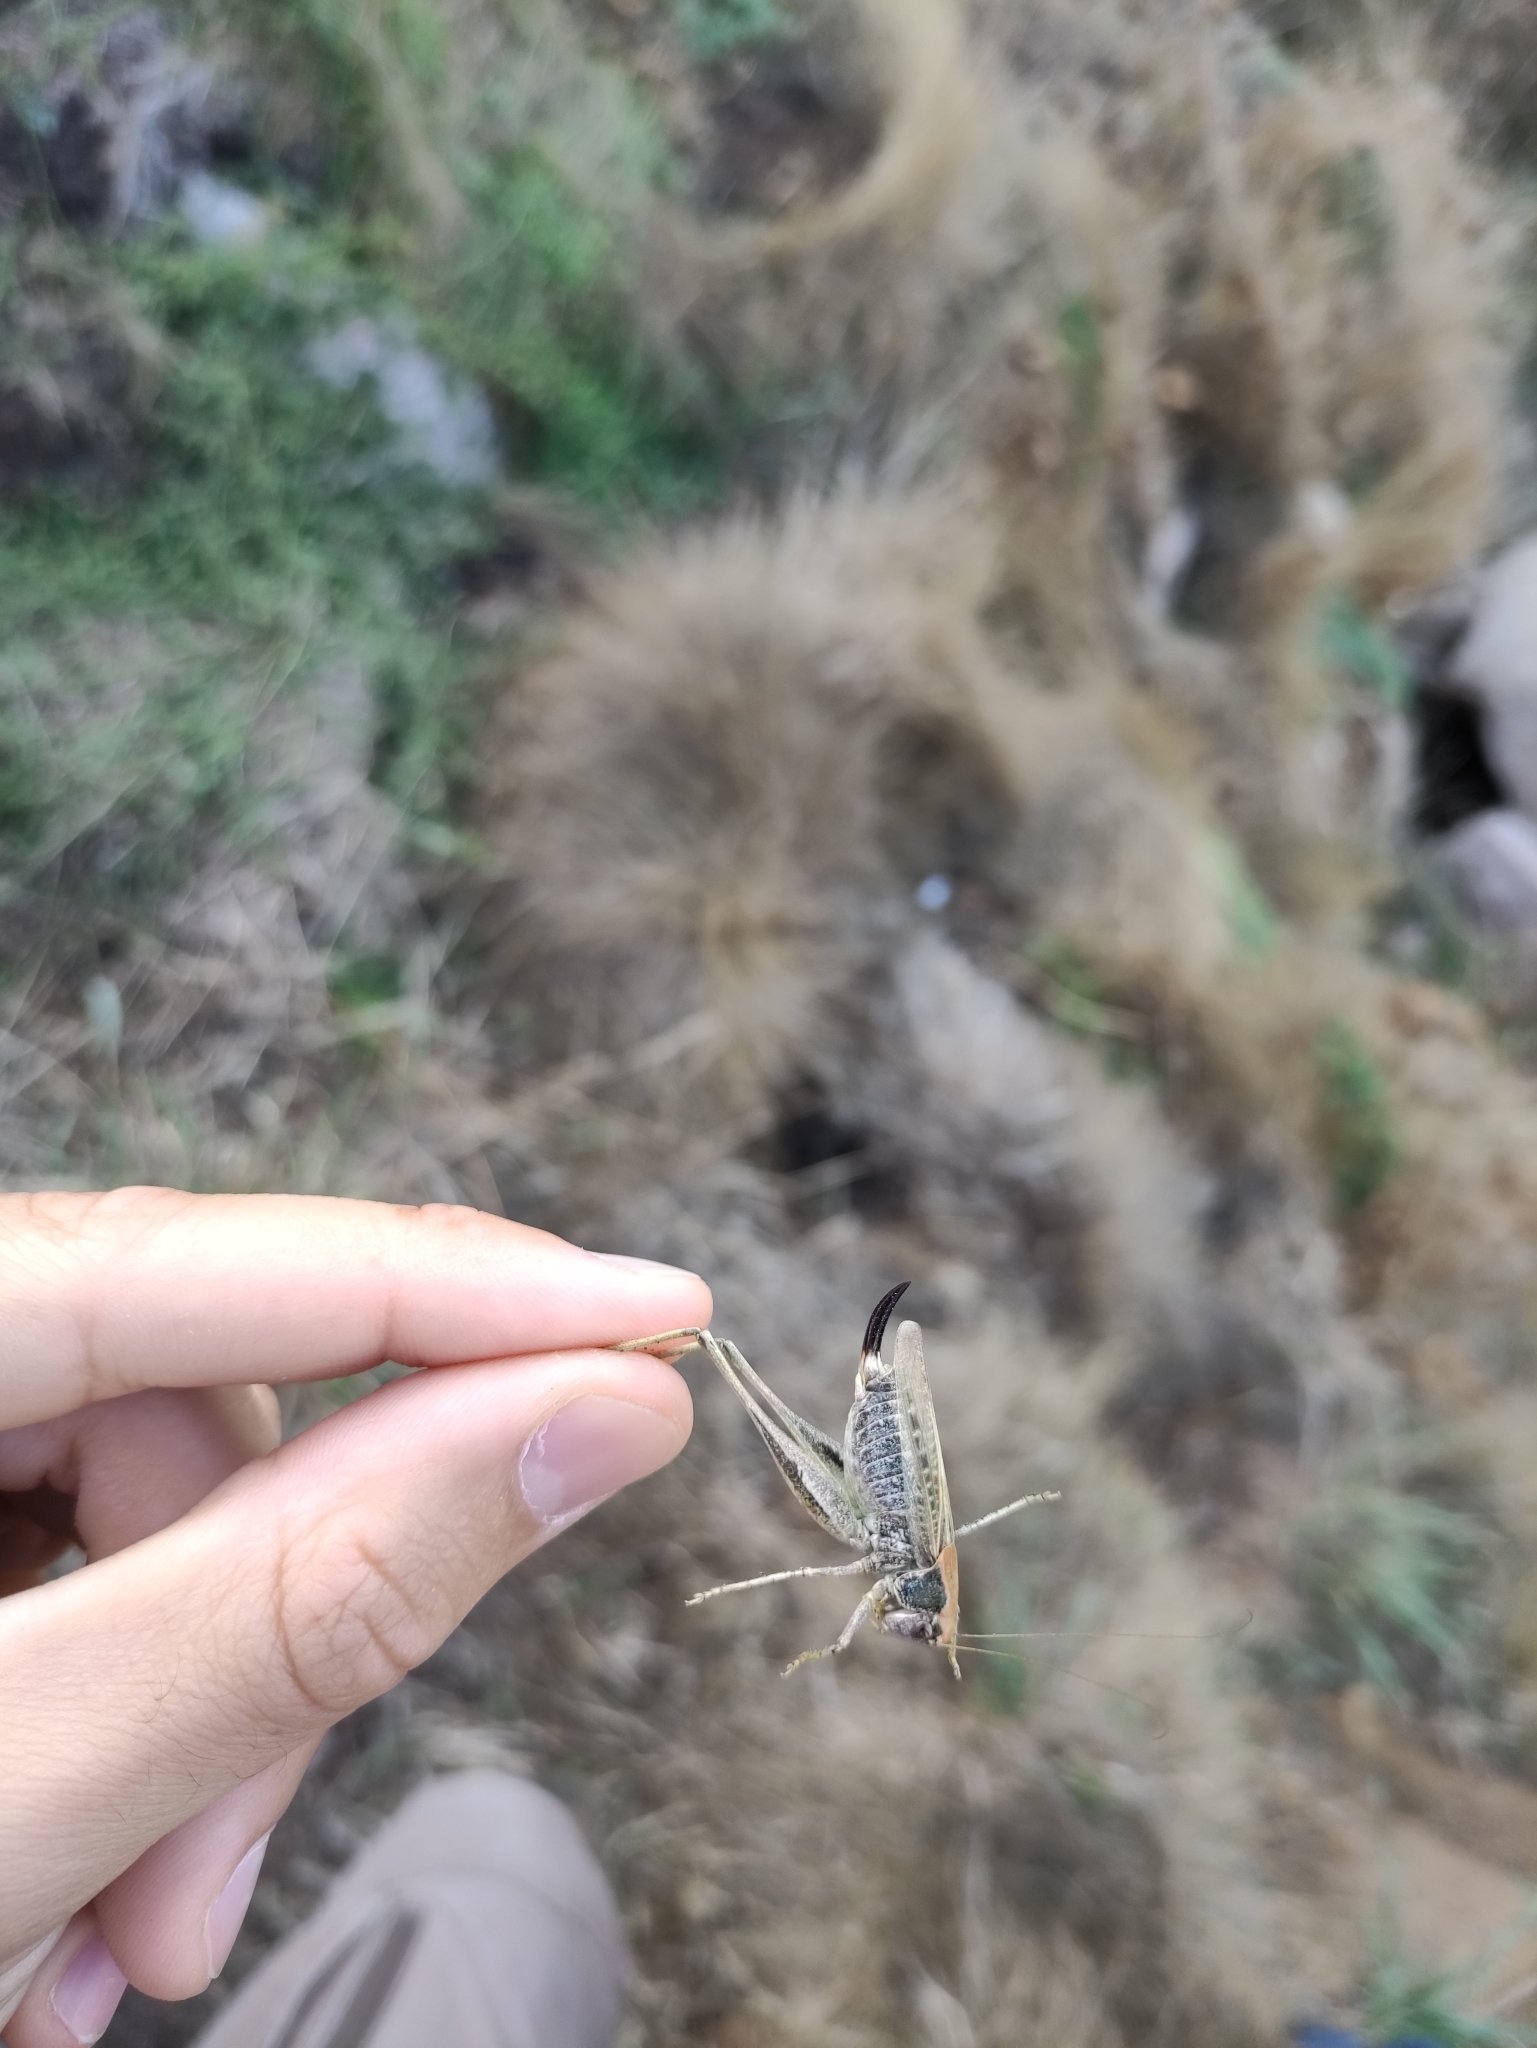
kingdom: Animalia
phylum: Arthropoda
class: Insecta
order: Orthoptera
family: Tettigoniidae
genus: Platycleis
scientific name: Platycleis albopunctata
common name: Grey bush-cricket
